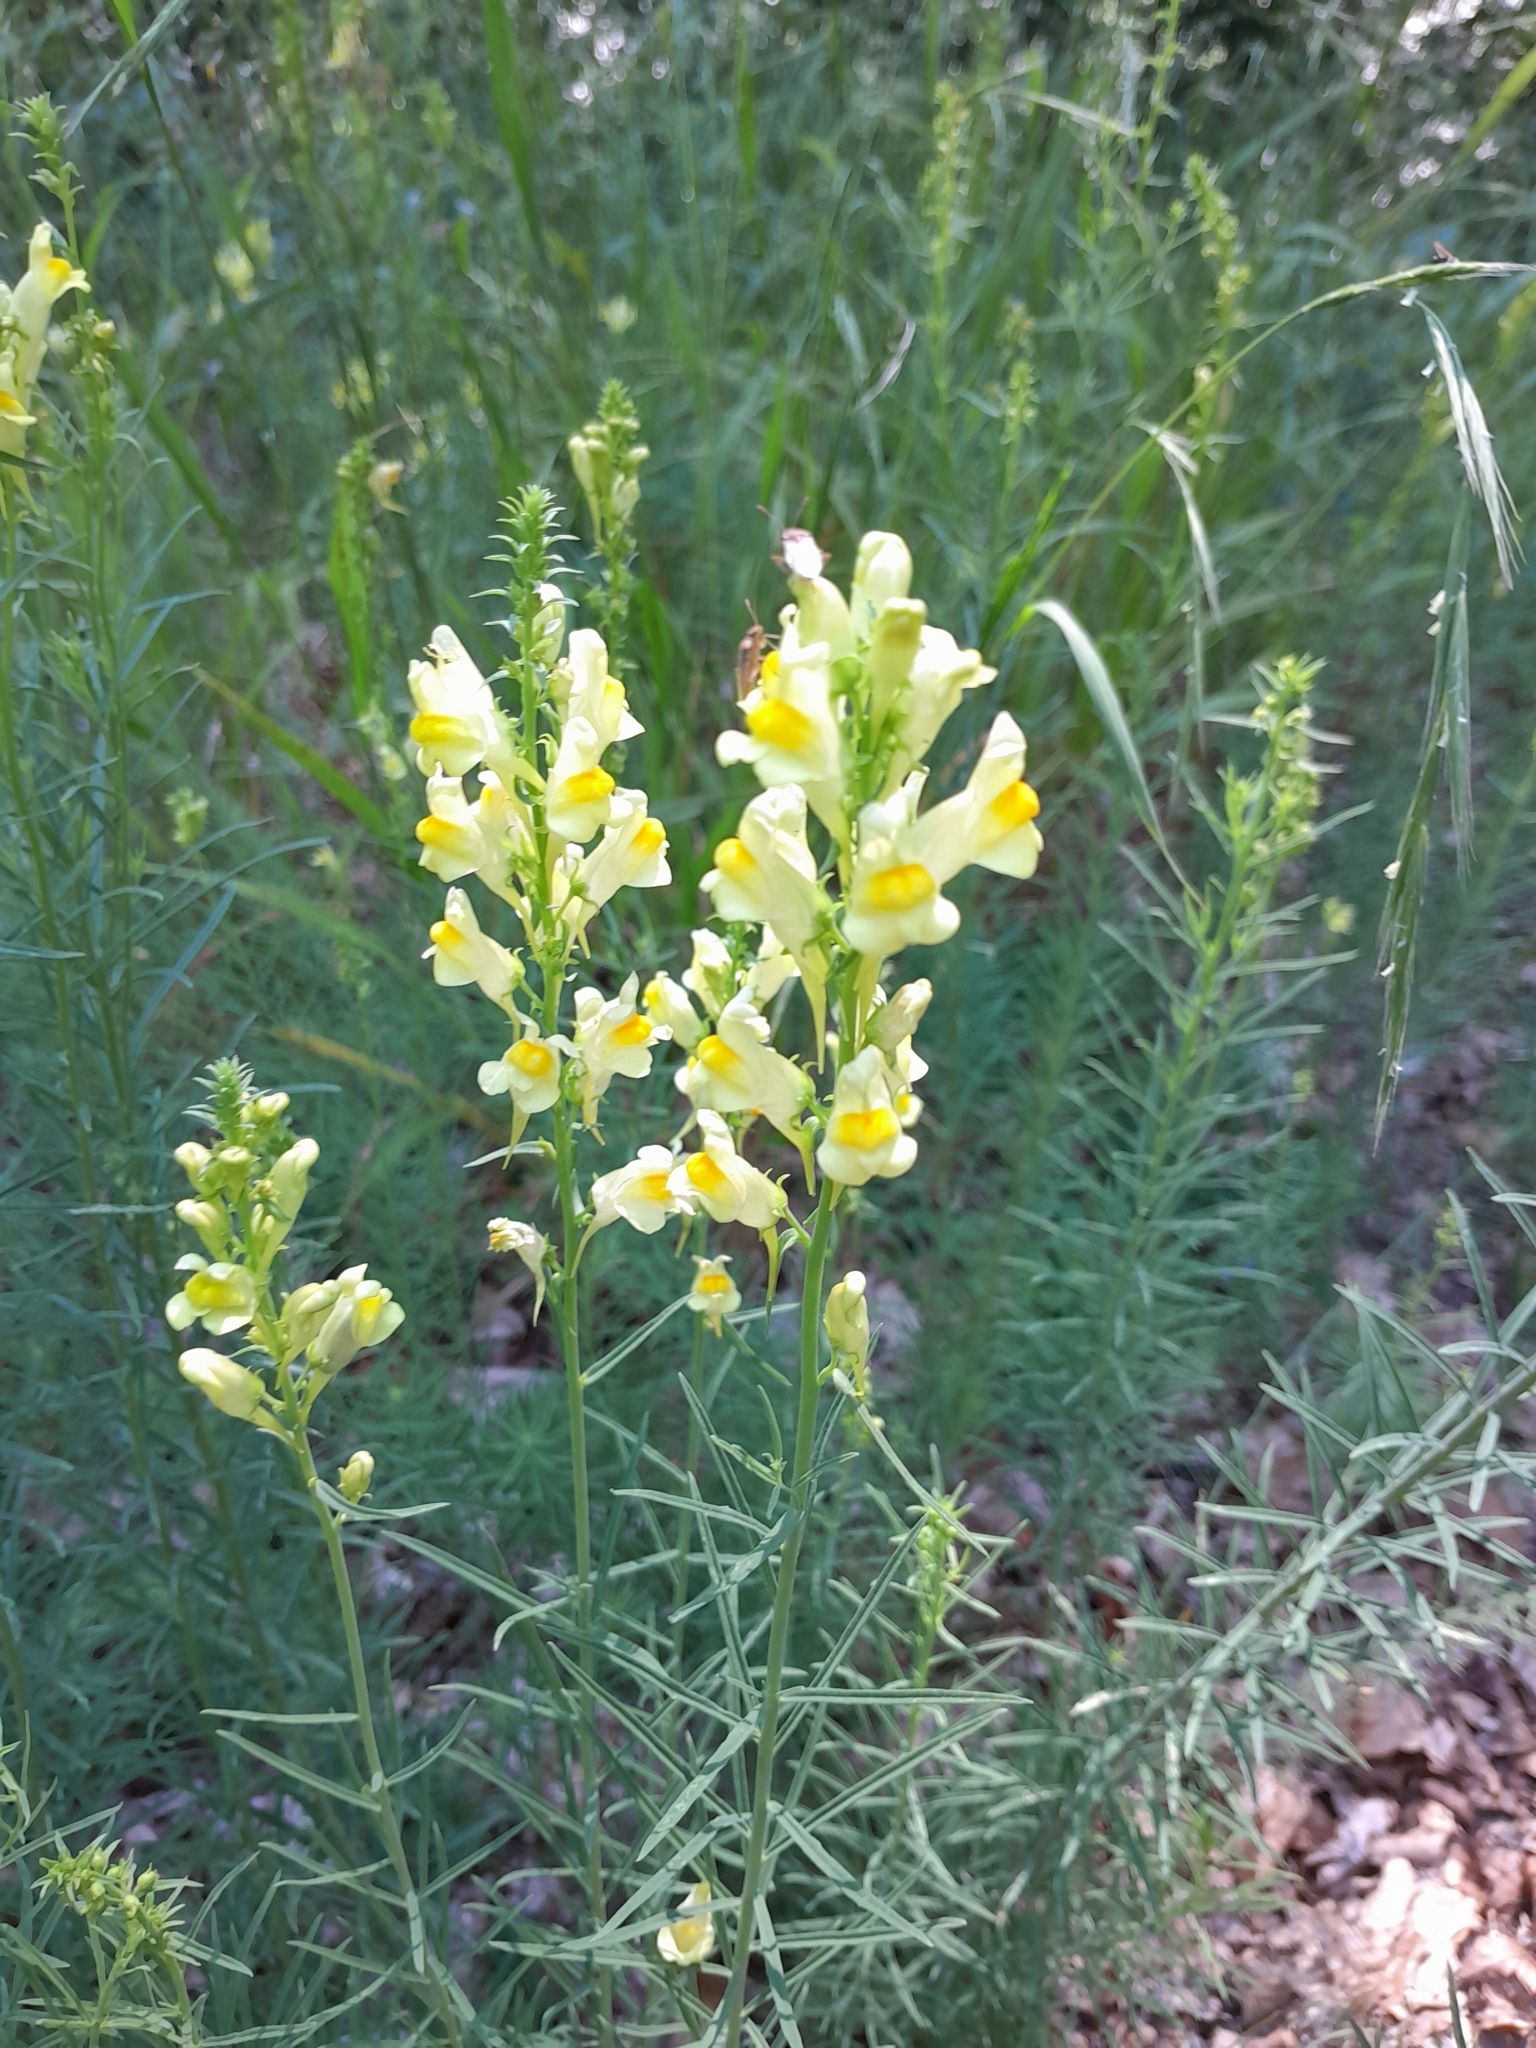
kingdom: Plantae
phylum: Tracheophyta
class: Magnoliopsida
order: Lamiales
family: Plantaginaceae
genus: Linaria
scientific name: Linaria vulgaris
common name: Butter and eggs
